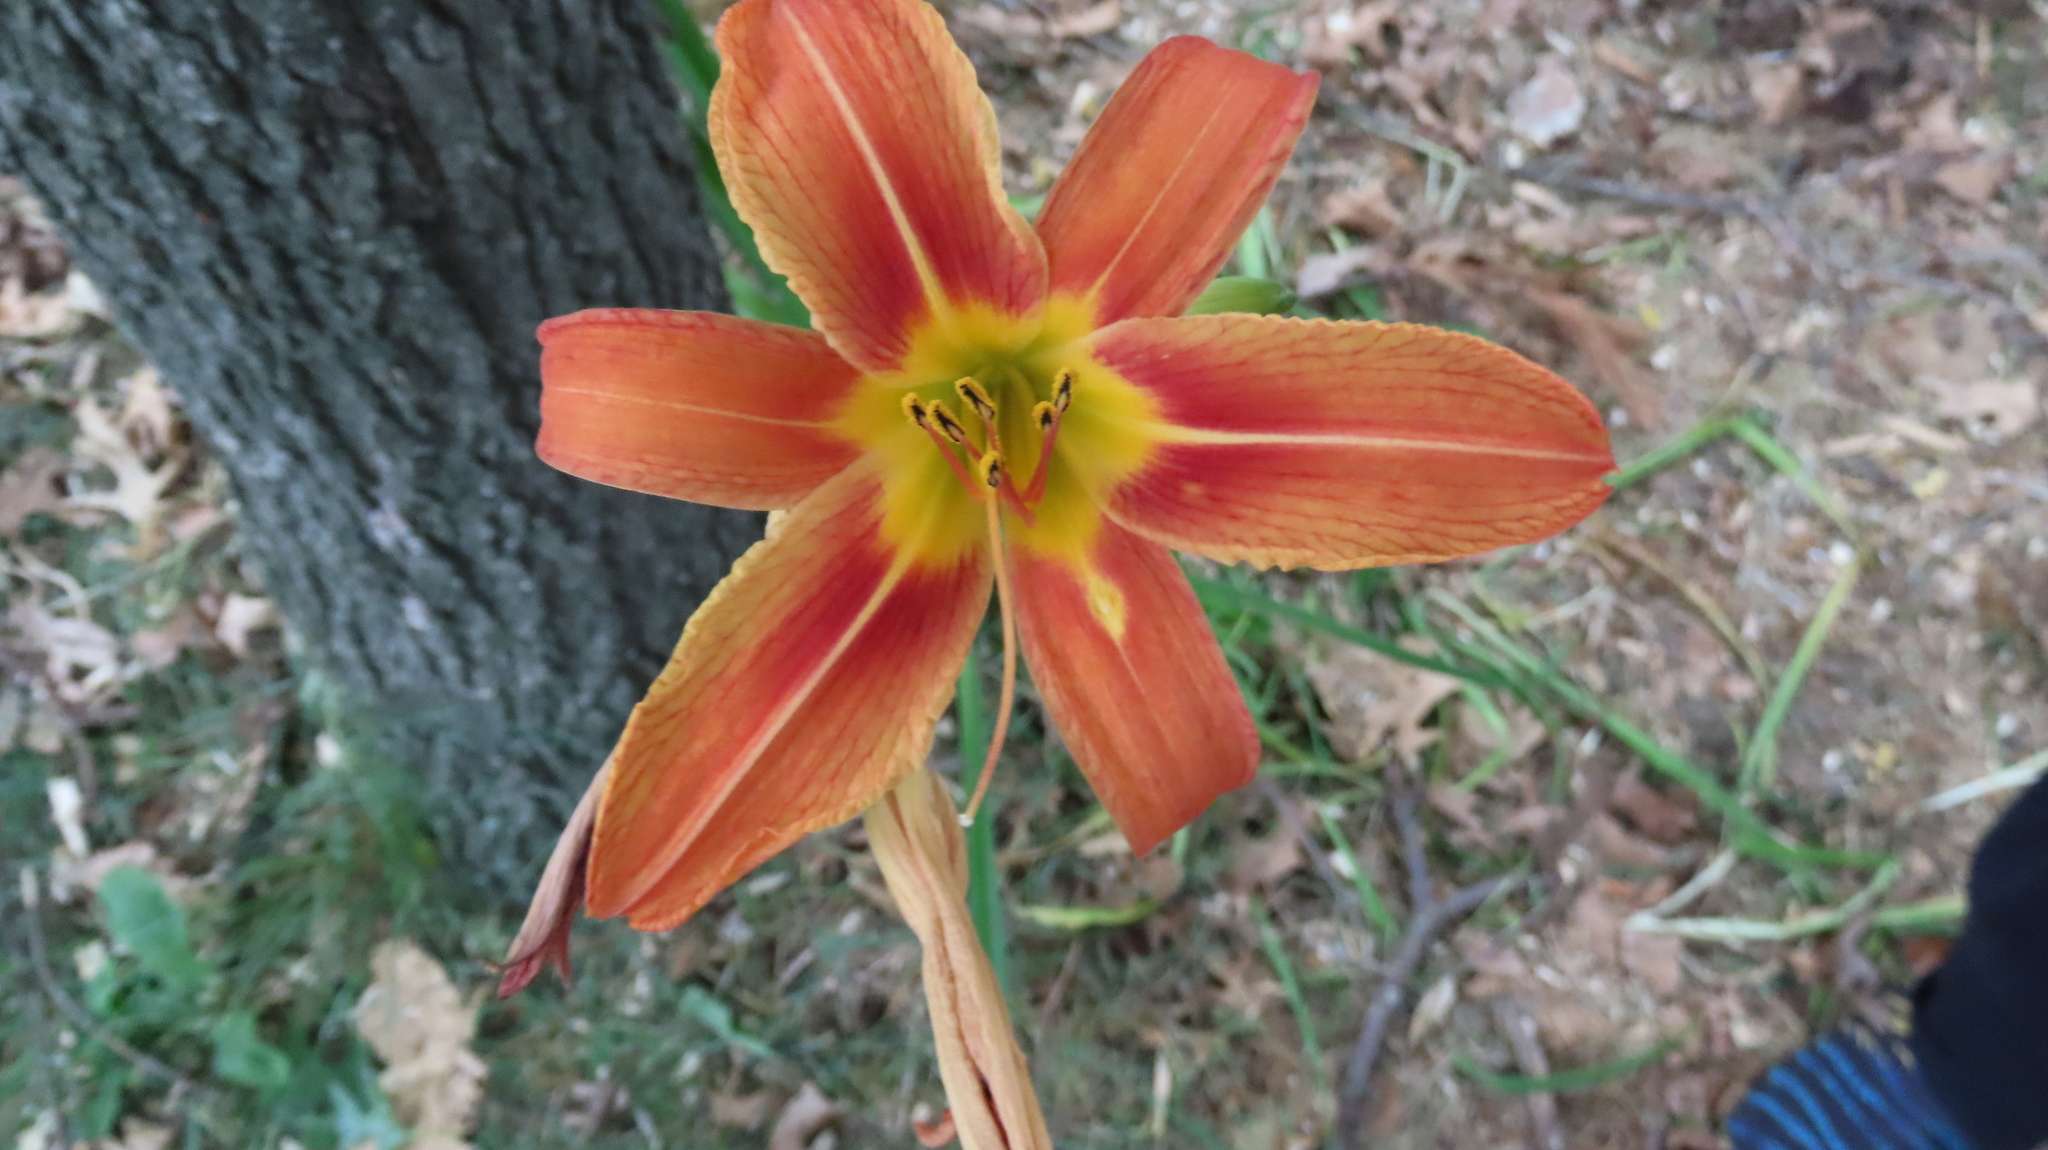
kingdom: Plantae
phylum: Tracheophyta
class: Liliopsida
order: Asparagales
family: Asphodelaceae
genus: Hemerocallis
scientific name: Hemerocallis fulva
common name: Orange day-lily
